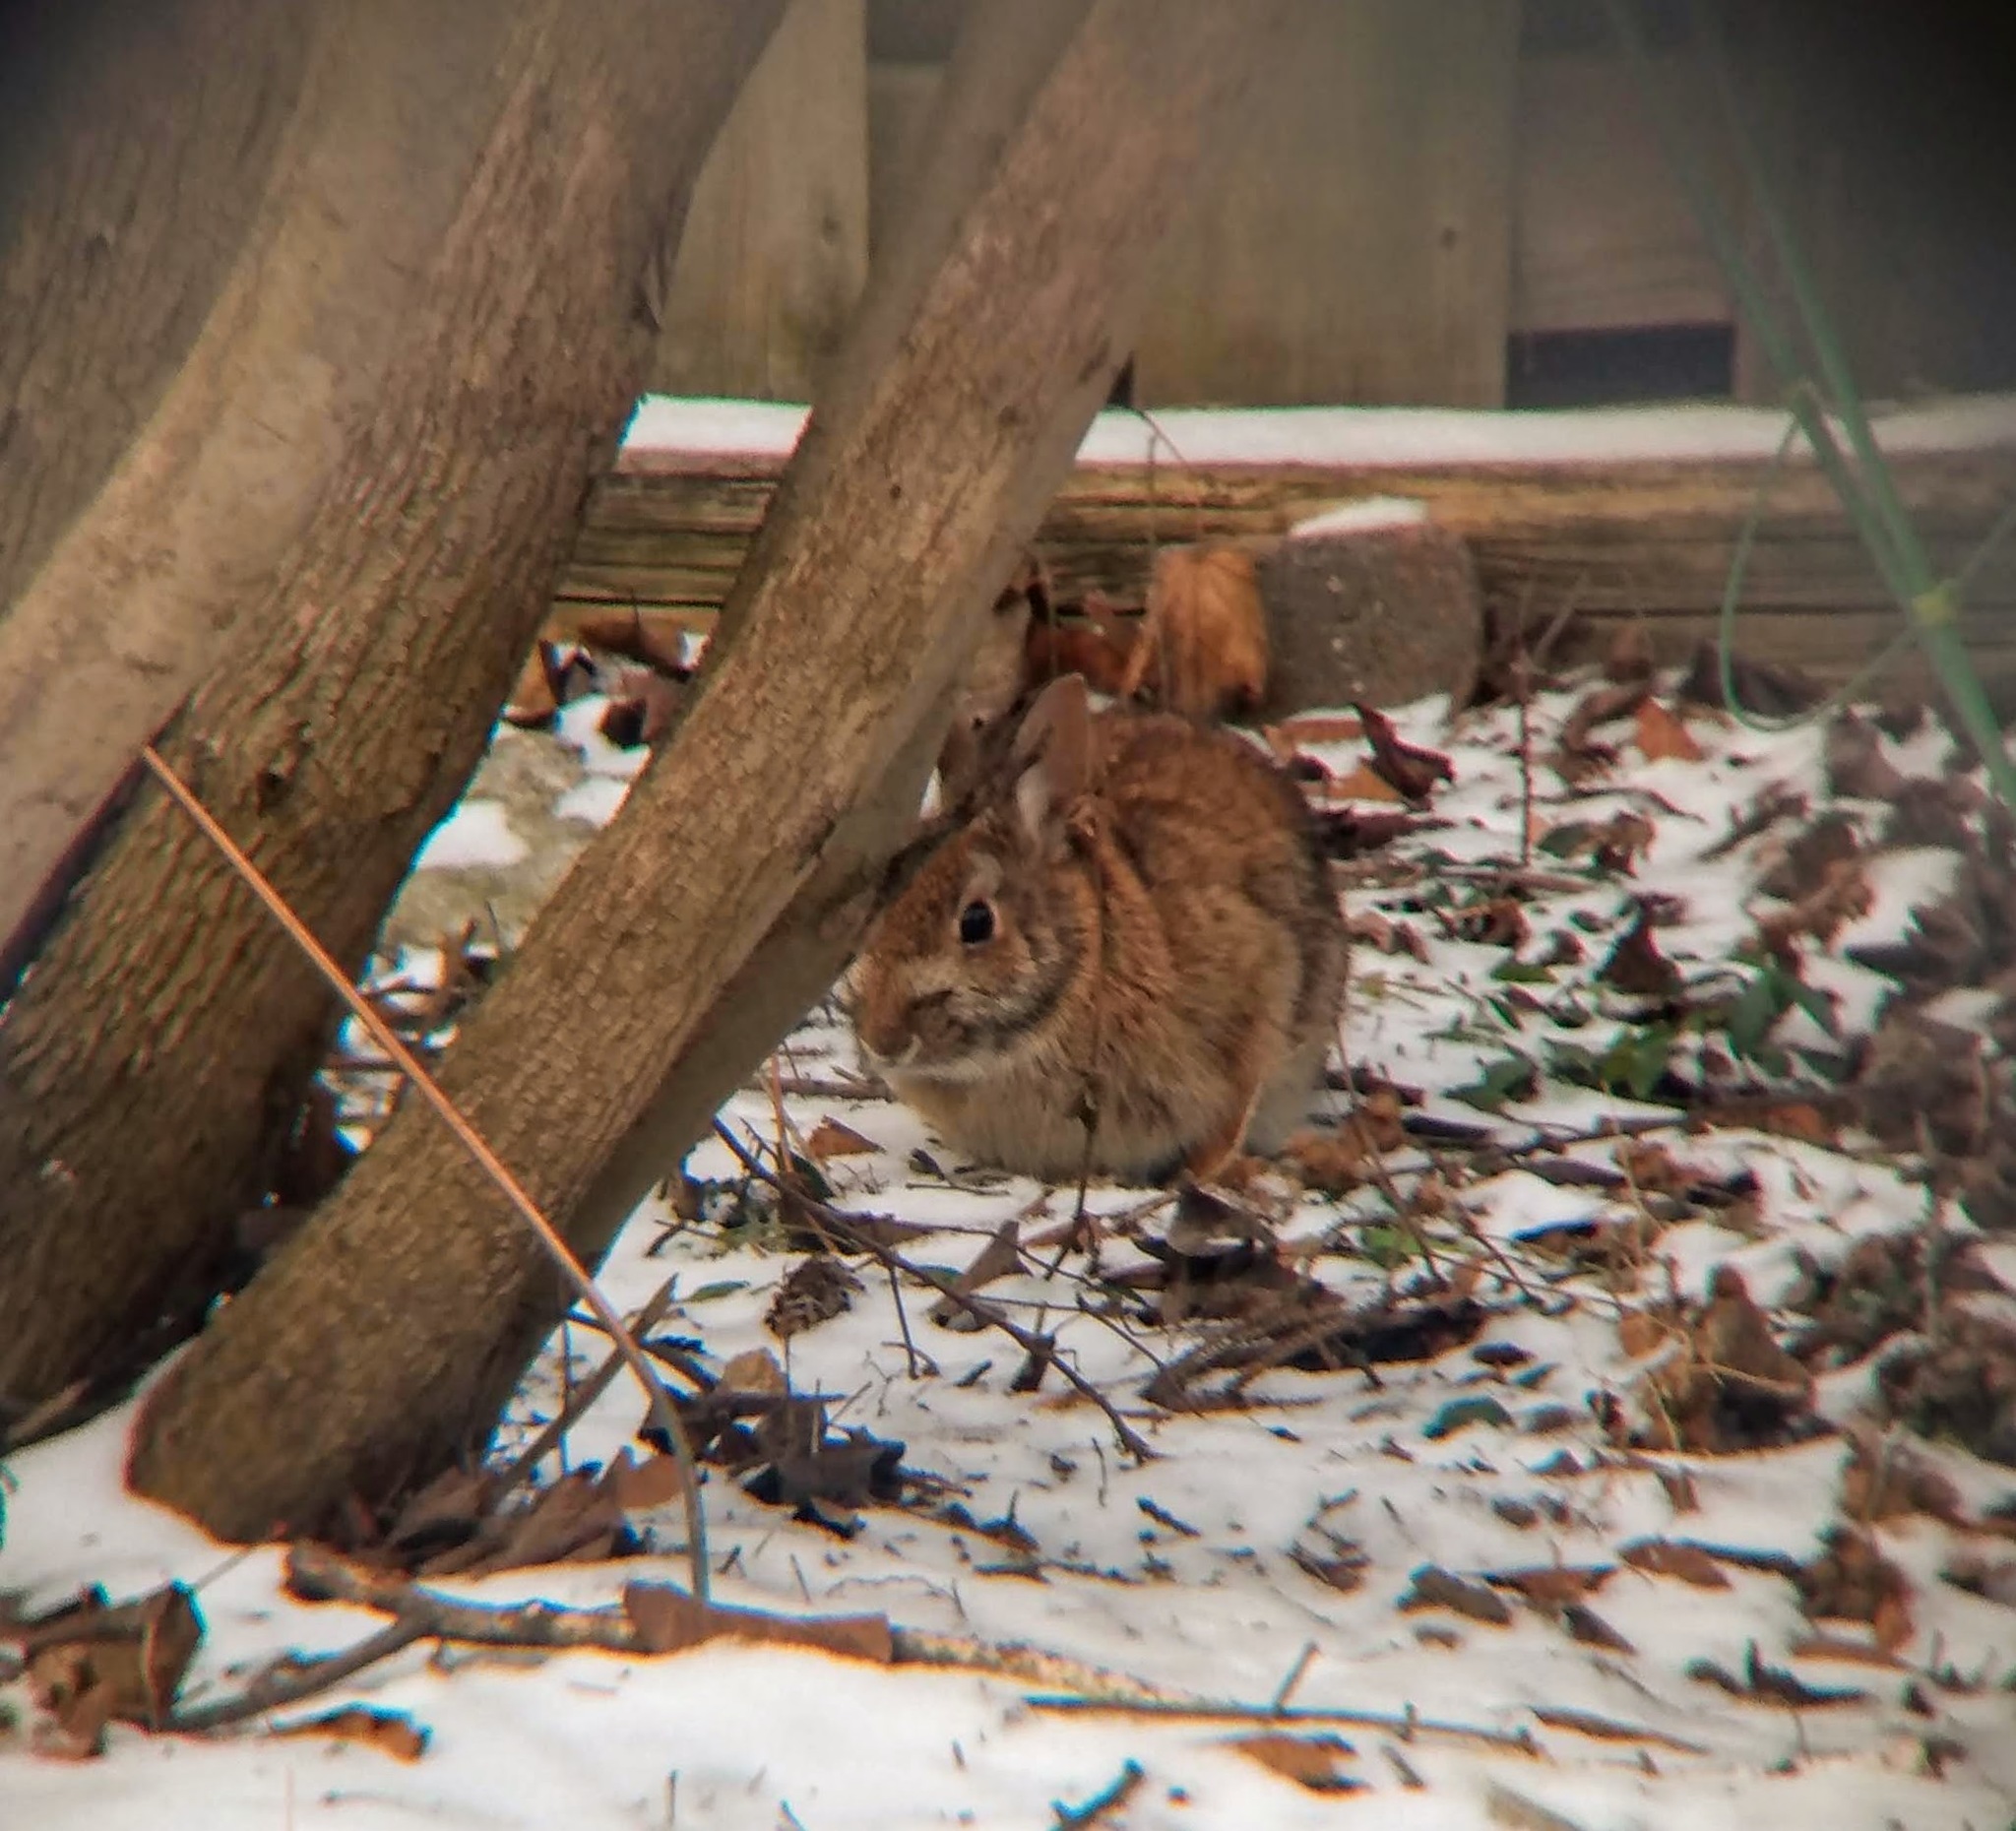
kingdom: Animalia
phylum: Chordata
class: Mammalia
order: Lagomorpha
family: Leporidae
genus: Sylvilagus
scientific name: Sylvilagus floridanus
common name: Eastern cottontail
